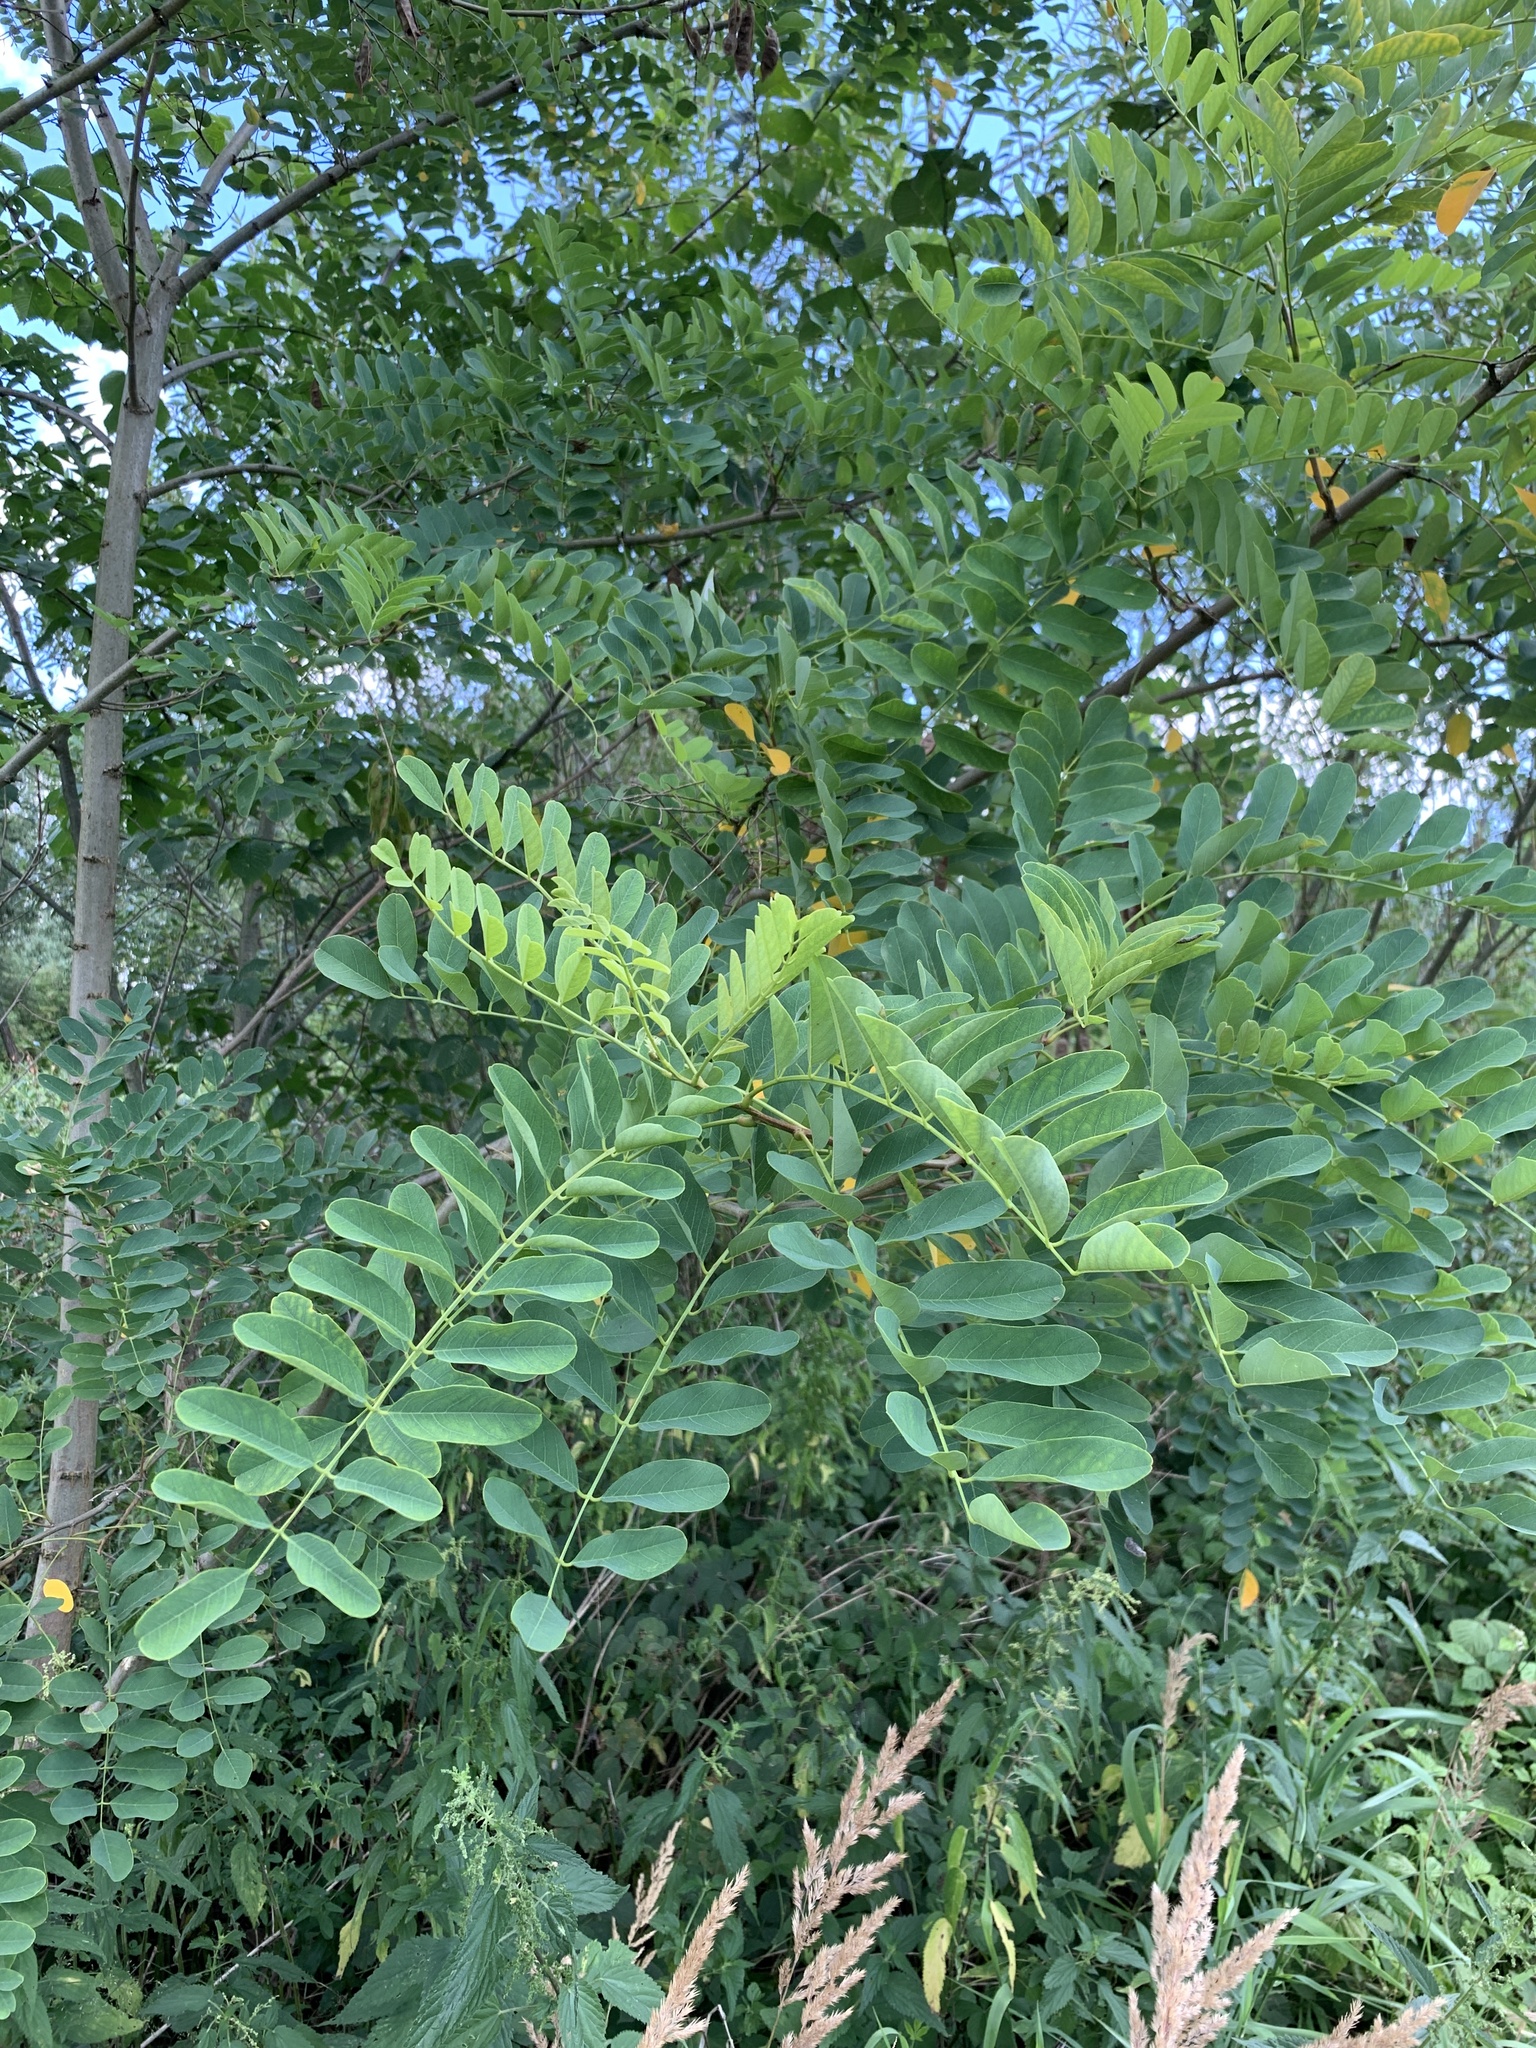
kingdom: Plantae
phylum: Tracheophyta
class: Magnoliopsida
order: Fabales
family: Fabaceae
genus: Robinia
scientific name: Robinia pseudoacacia
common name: Black locust
